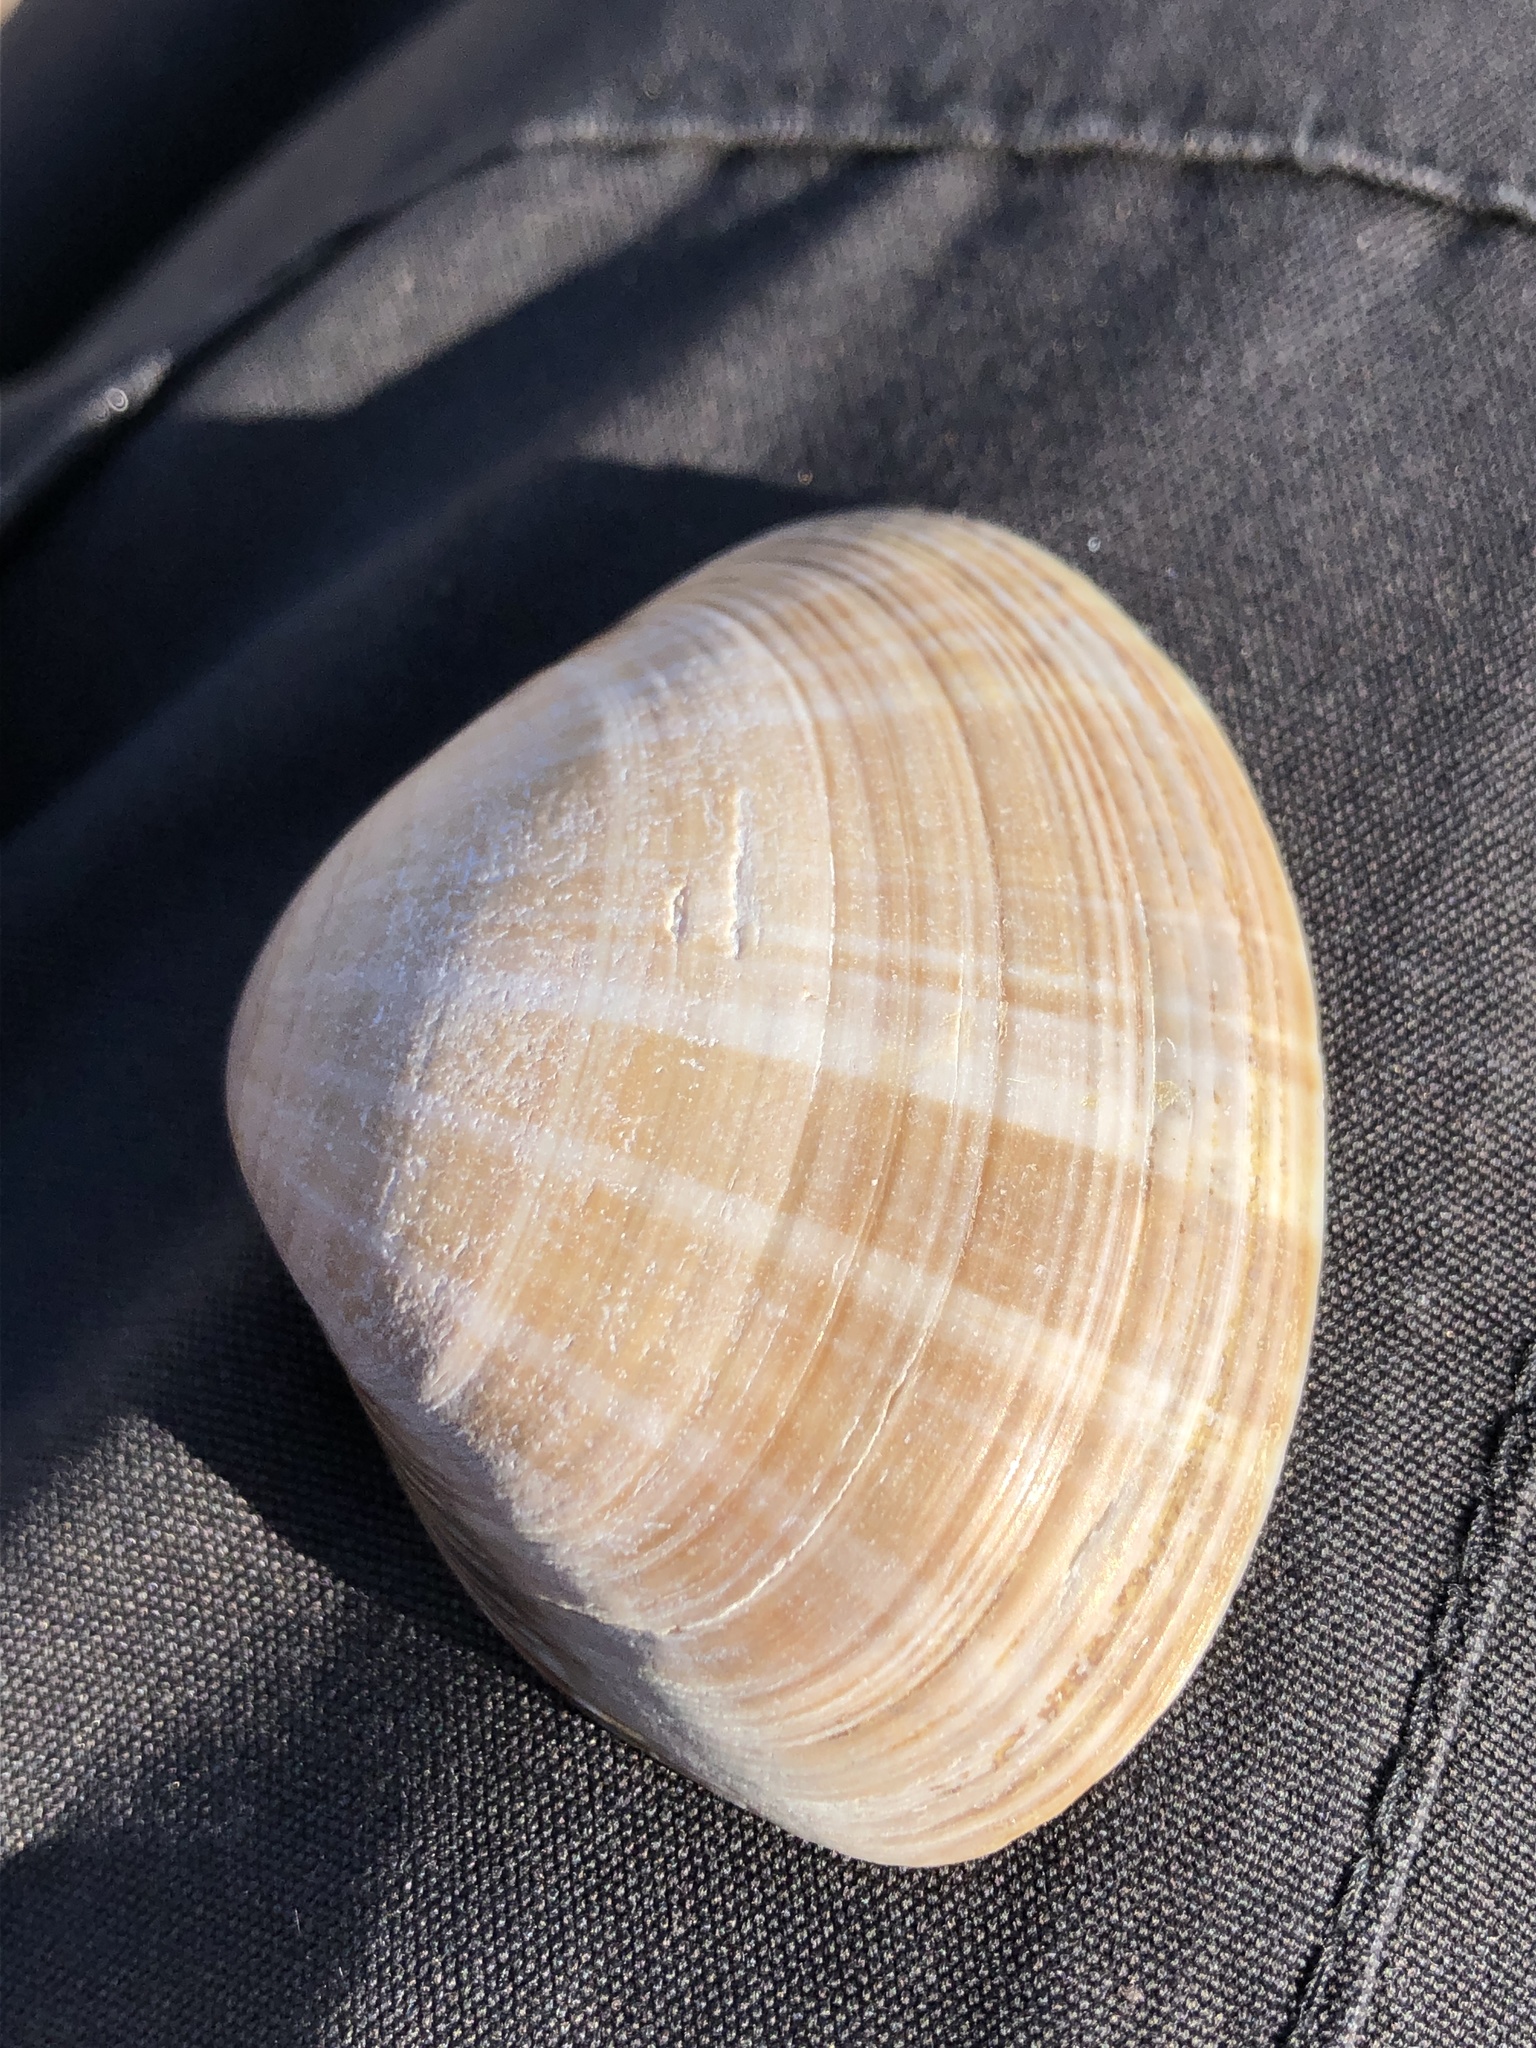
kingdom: Animalia
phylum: Mollusca
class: Bivalvia
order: Venerida
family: Mactridae
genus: Mactra
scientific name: Mactra chinensis
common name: Chinese surf clam
